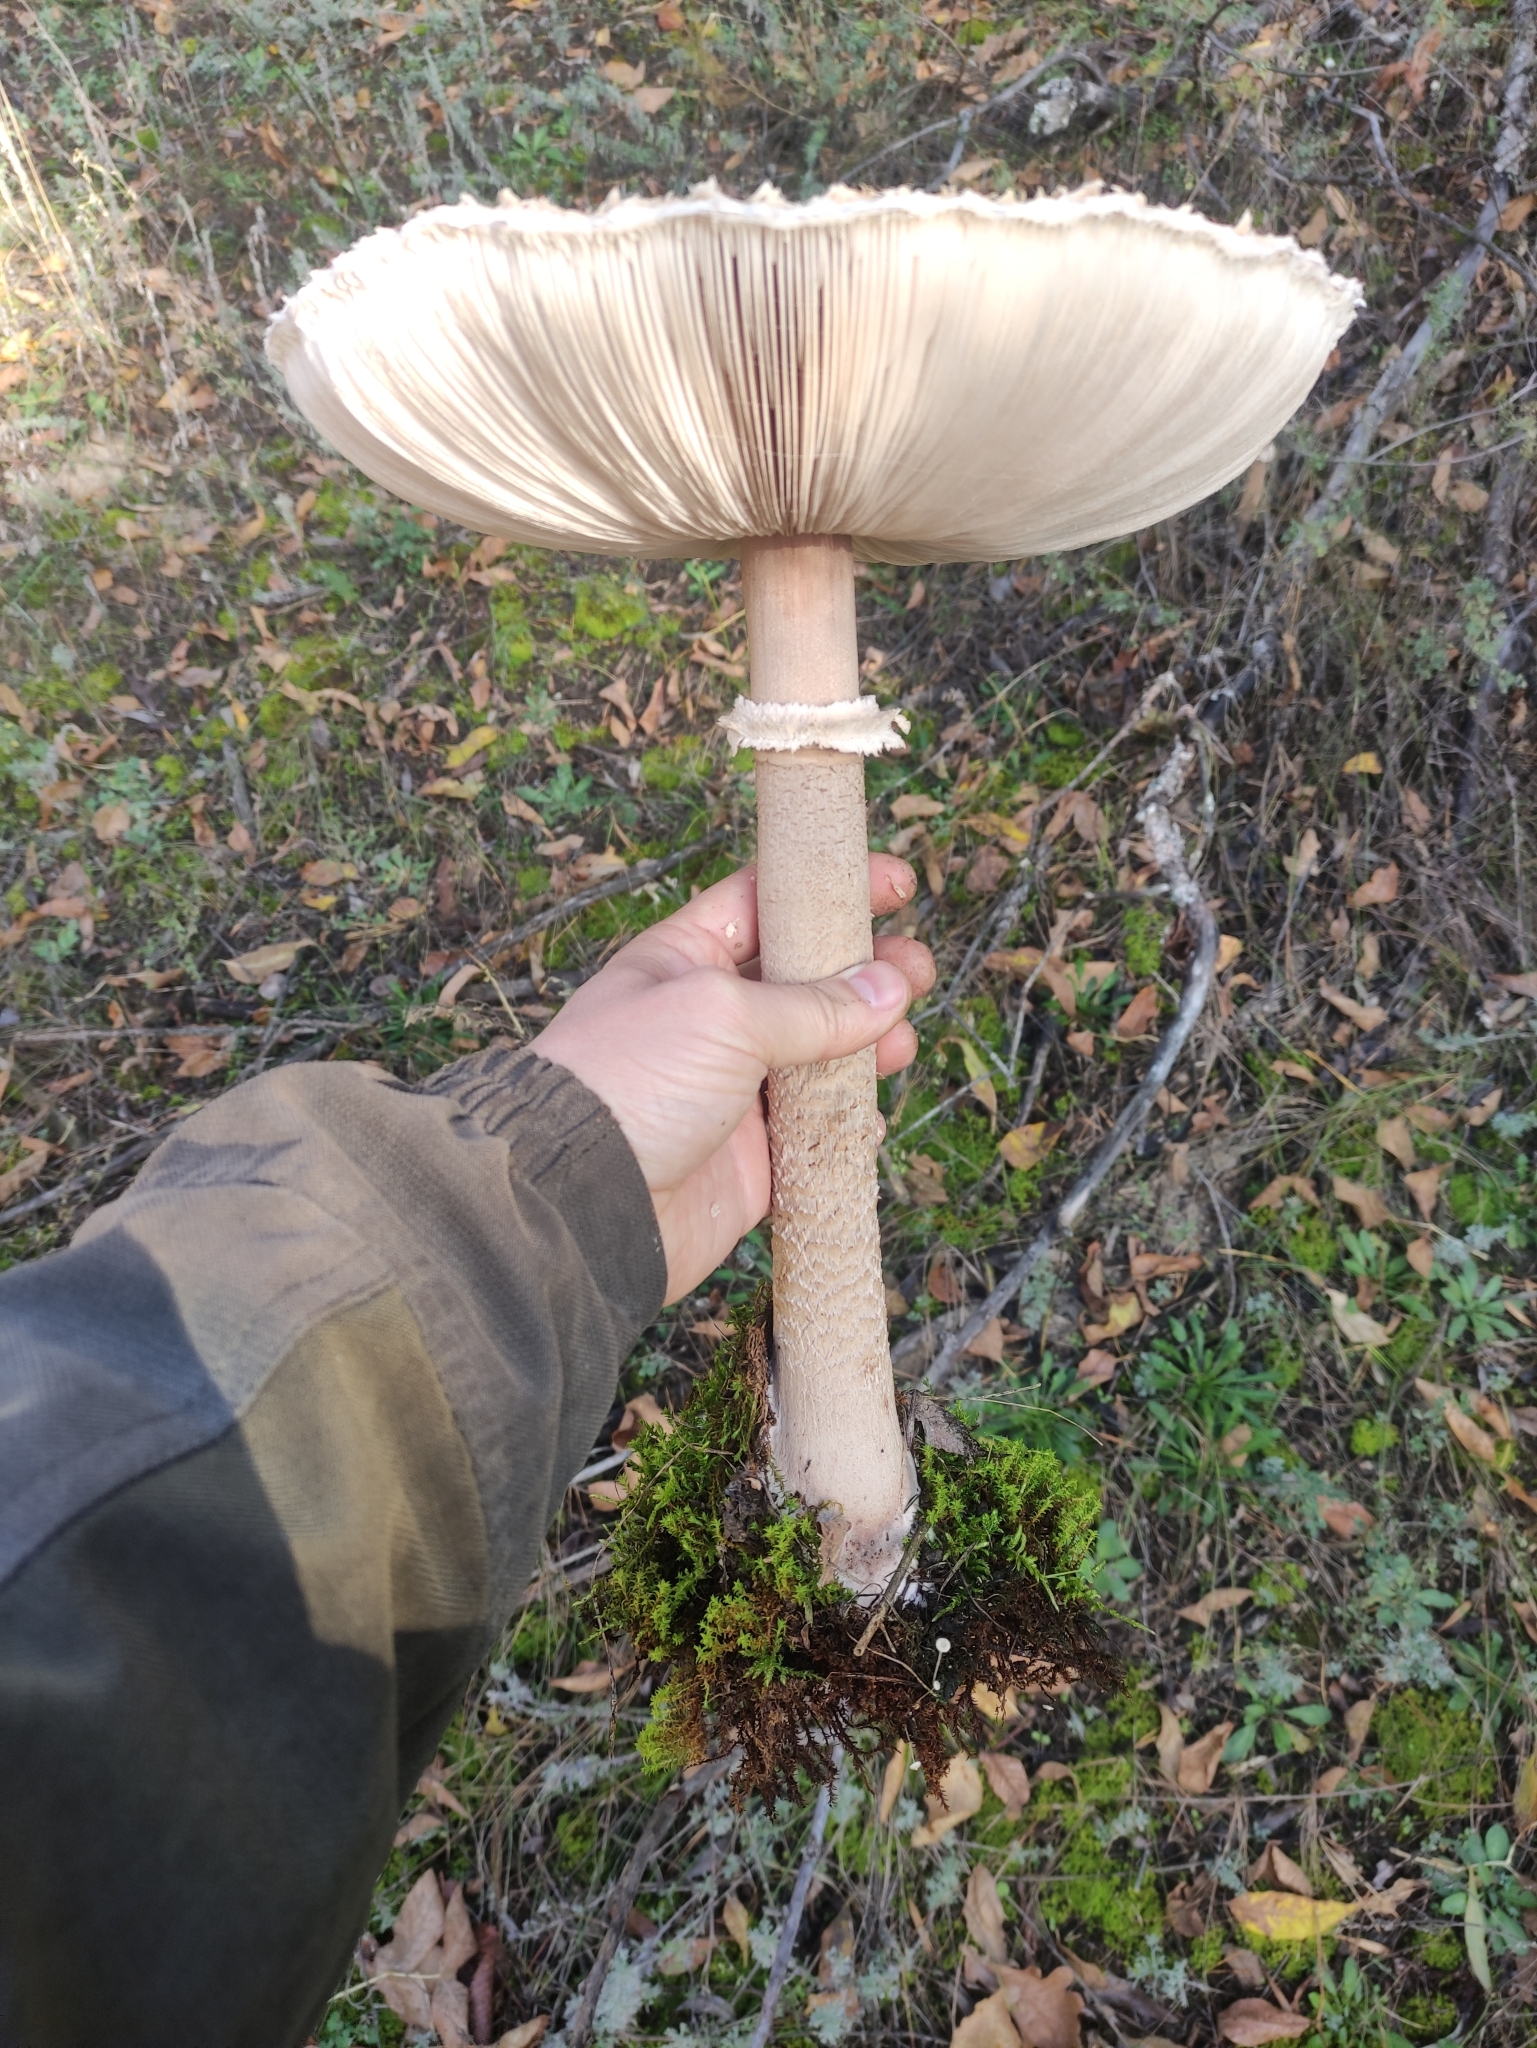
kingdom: Fungi
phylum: Basidiomycota
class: Agaricomycetes
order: Agaricales
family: Agaricaceae
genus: Macrolepiota
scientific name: Macrolepiota procera
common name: Parasol
